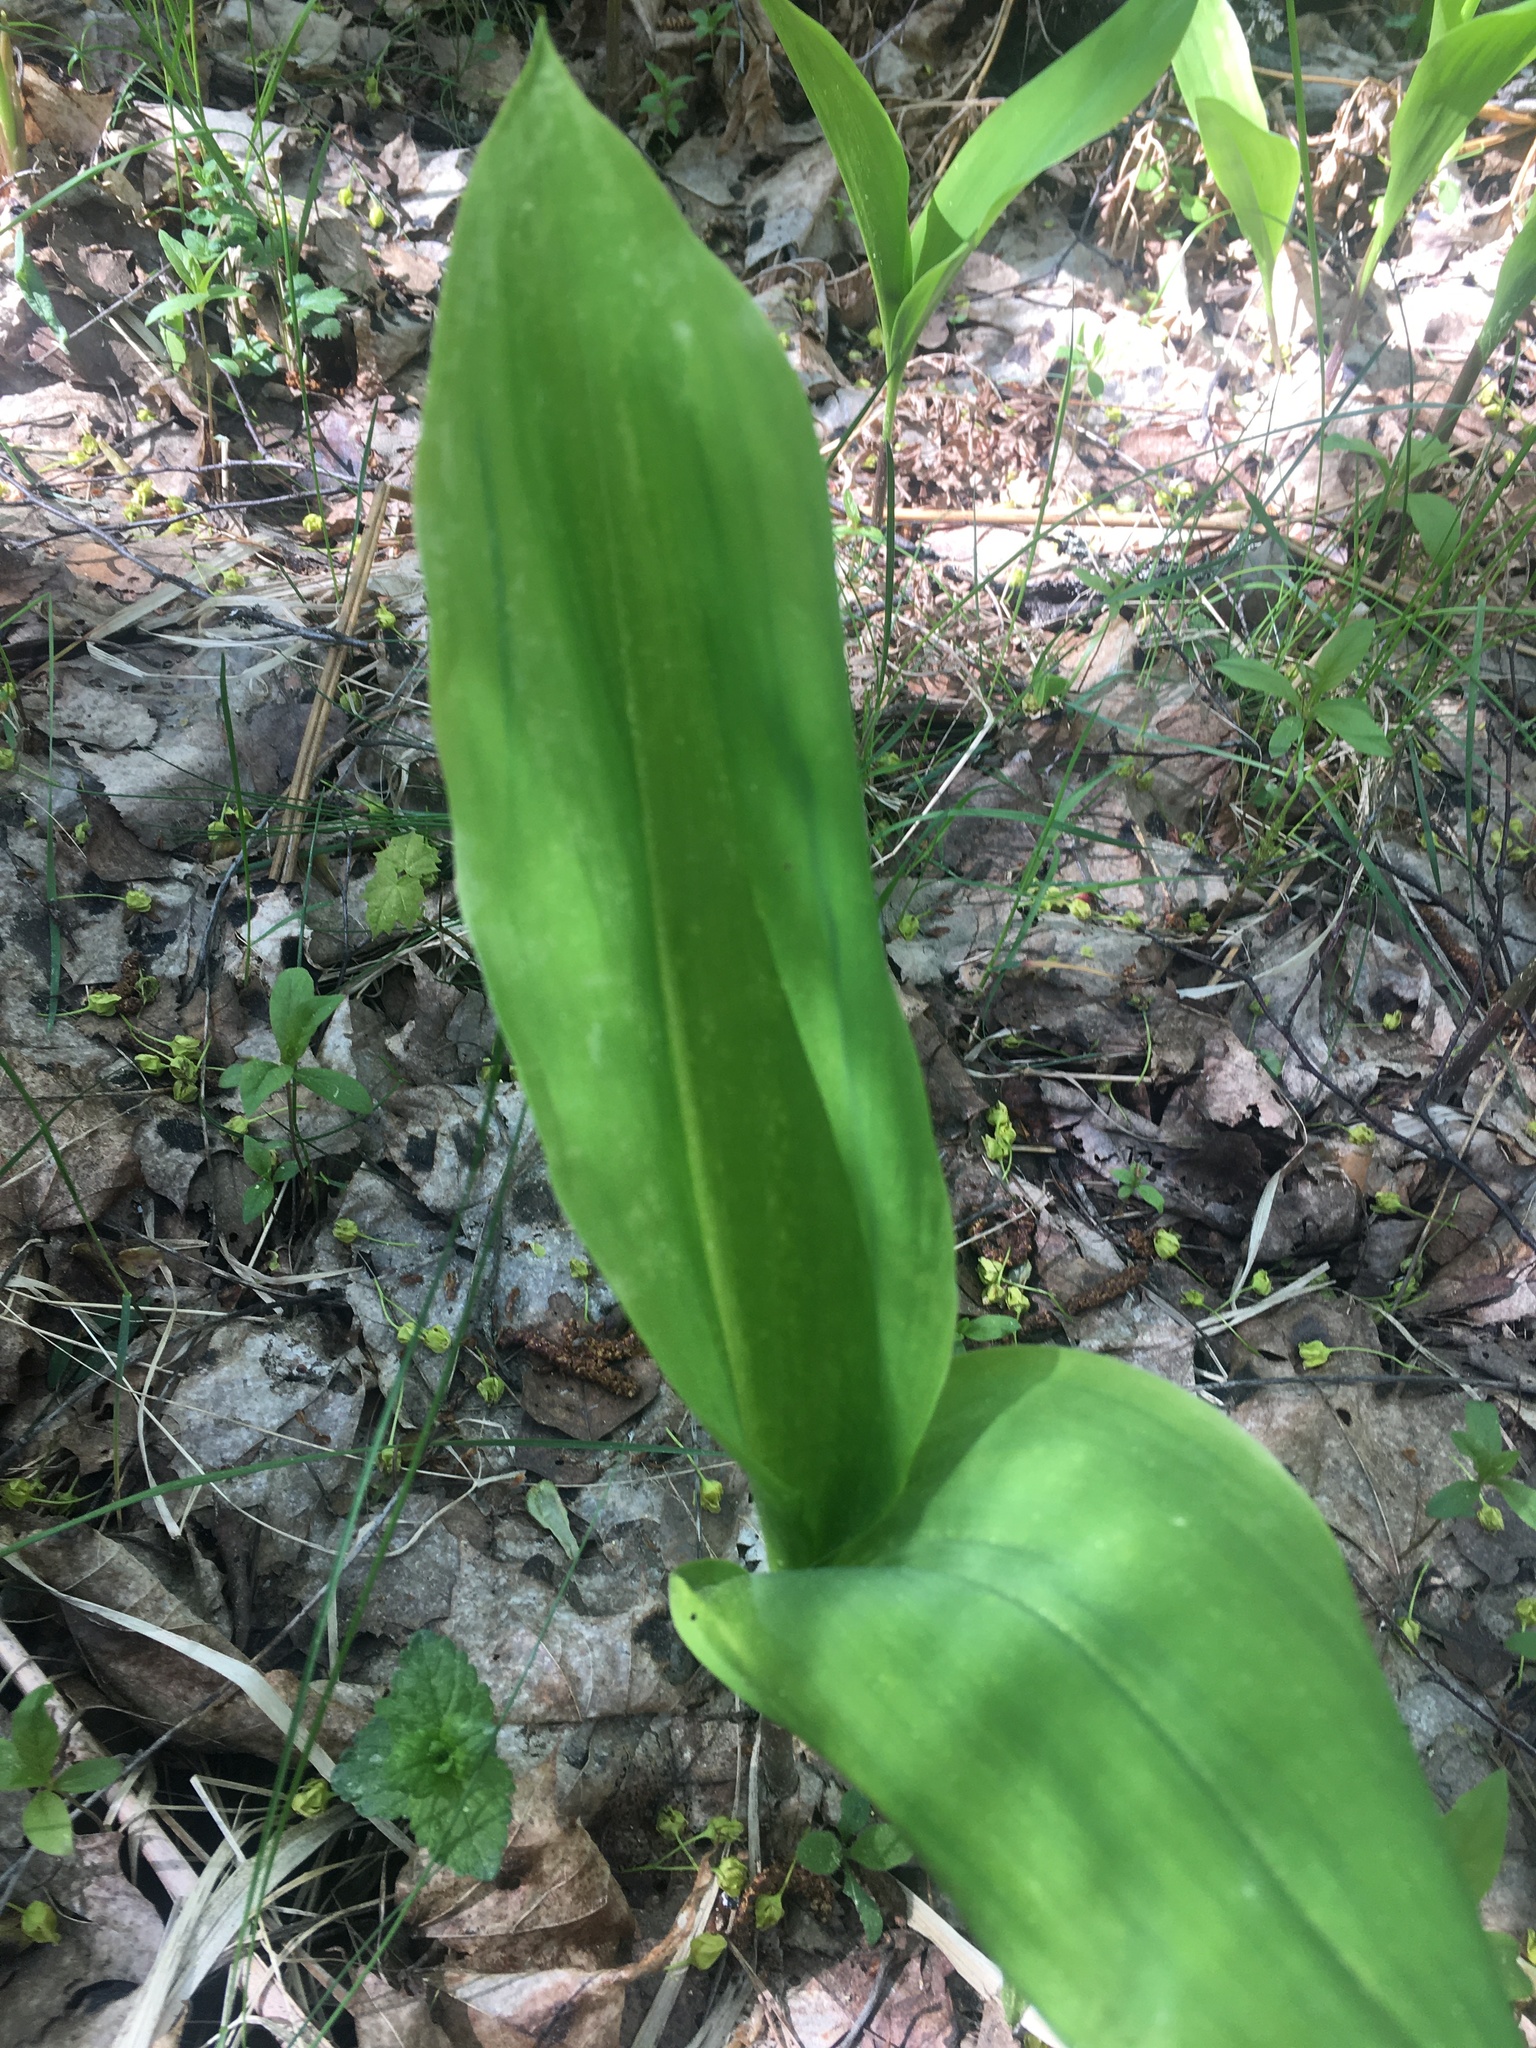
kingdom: Plantae
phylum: Tracheophyta
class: Liliopsida
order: Asparagales
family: Asparagaceae
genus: Convallaria
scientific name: Convallaria majalis
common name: Lily-of-the-valley
